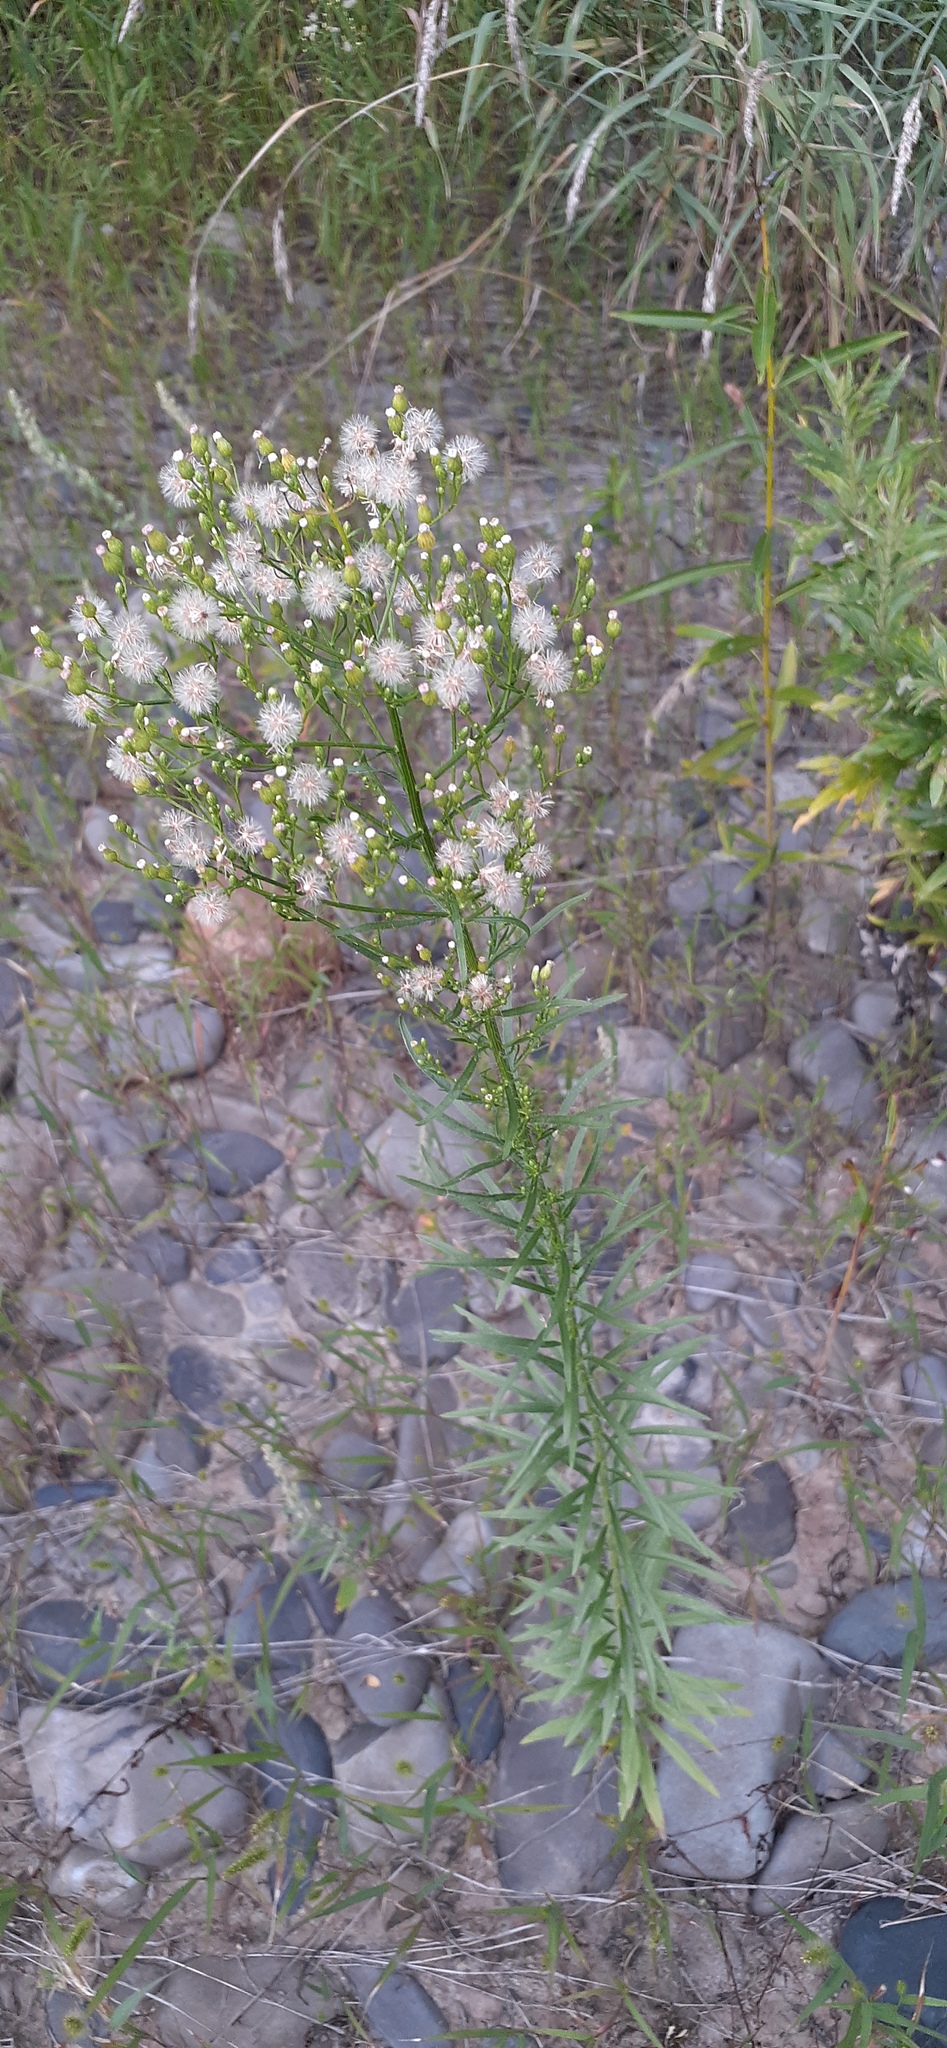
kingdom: Plantae
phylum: Tracheophyta
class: Magnoliopsida
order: Asterales
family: Asteraceae
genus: Erigeron
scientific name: Erigeron canadensis
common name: Canadian fleabane
